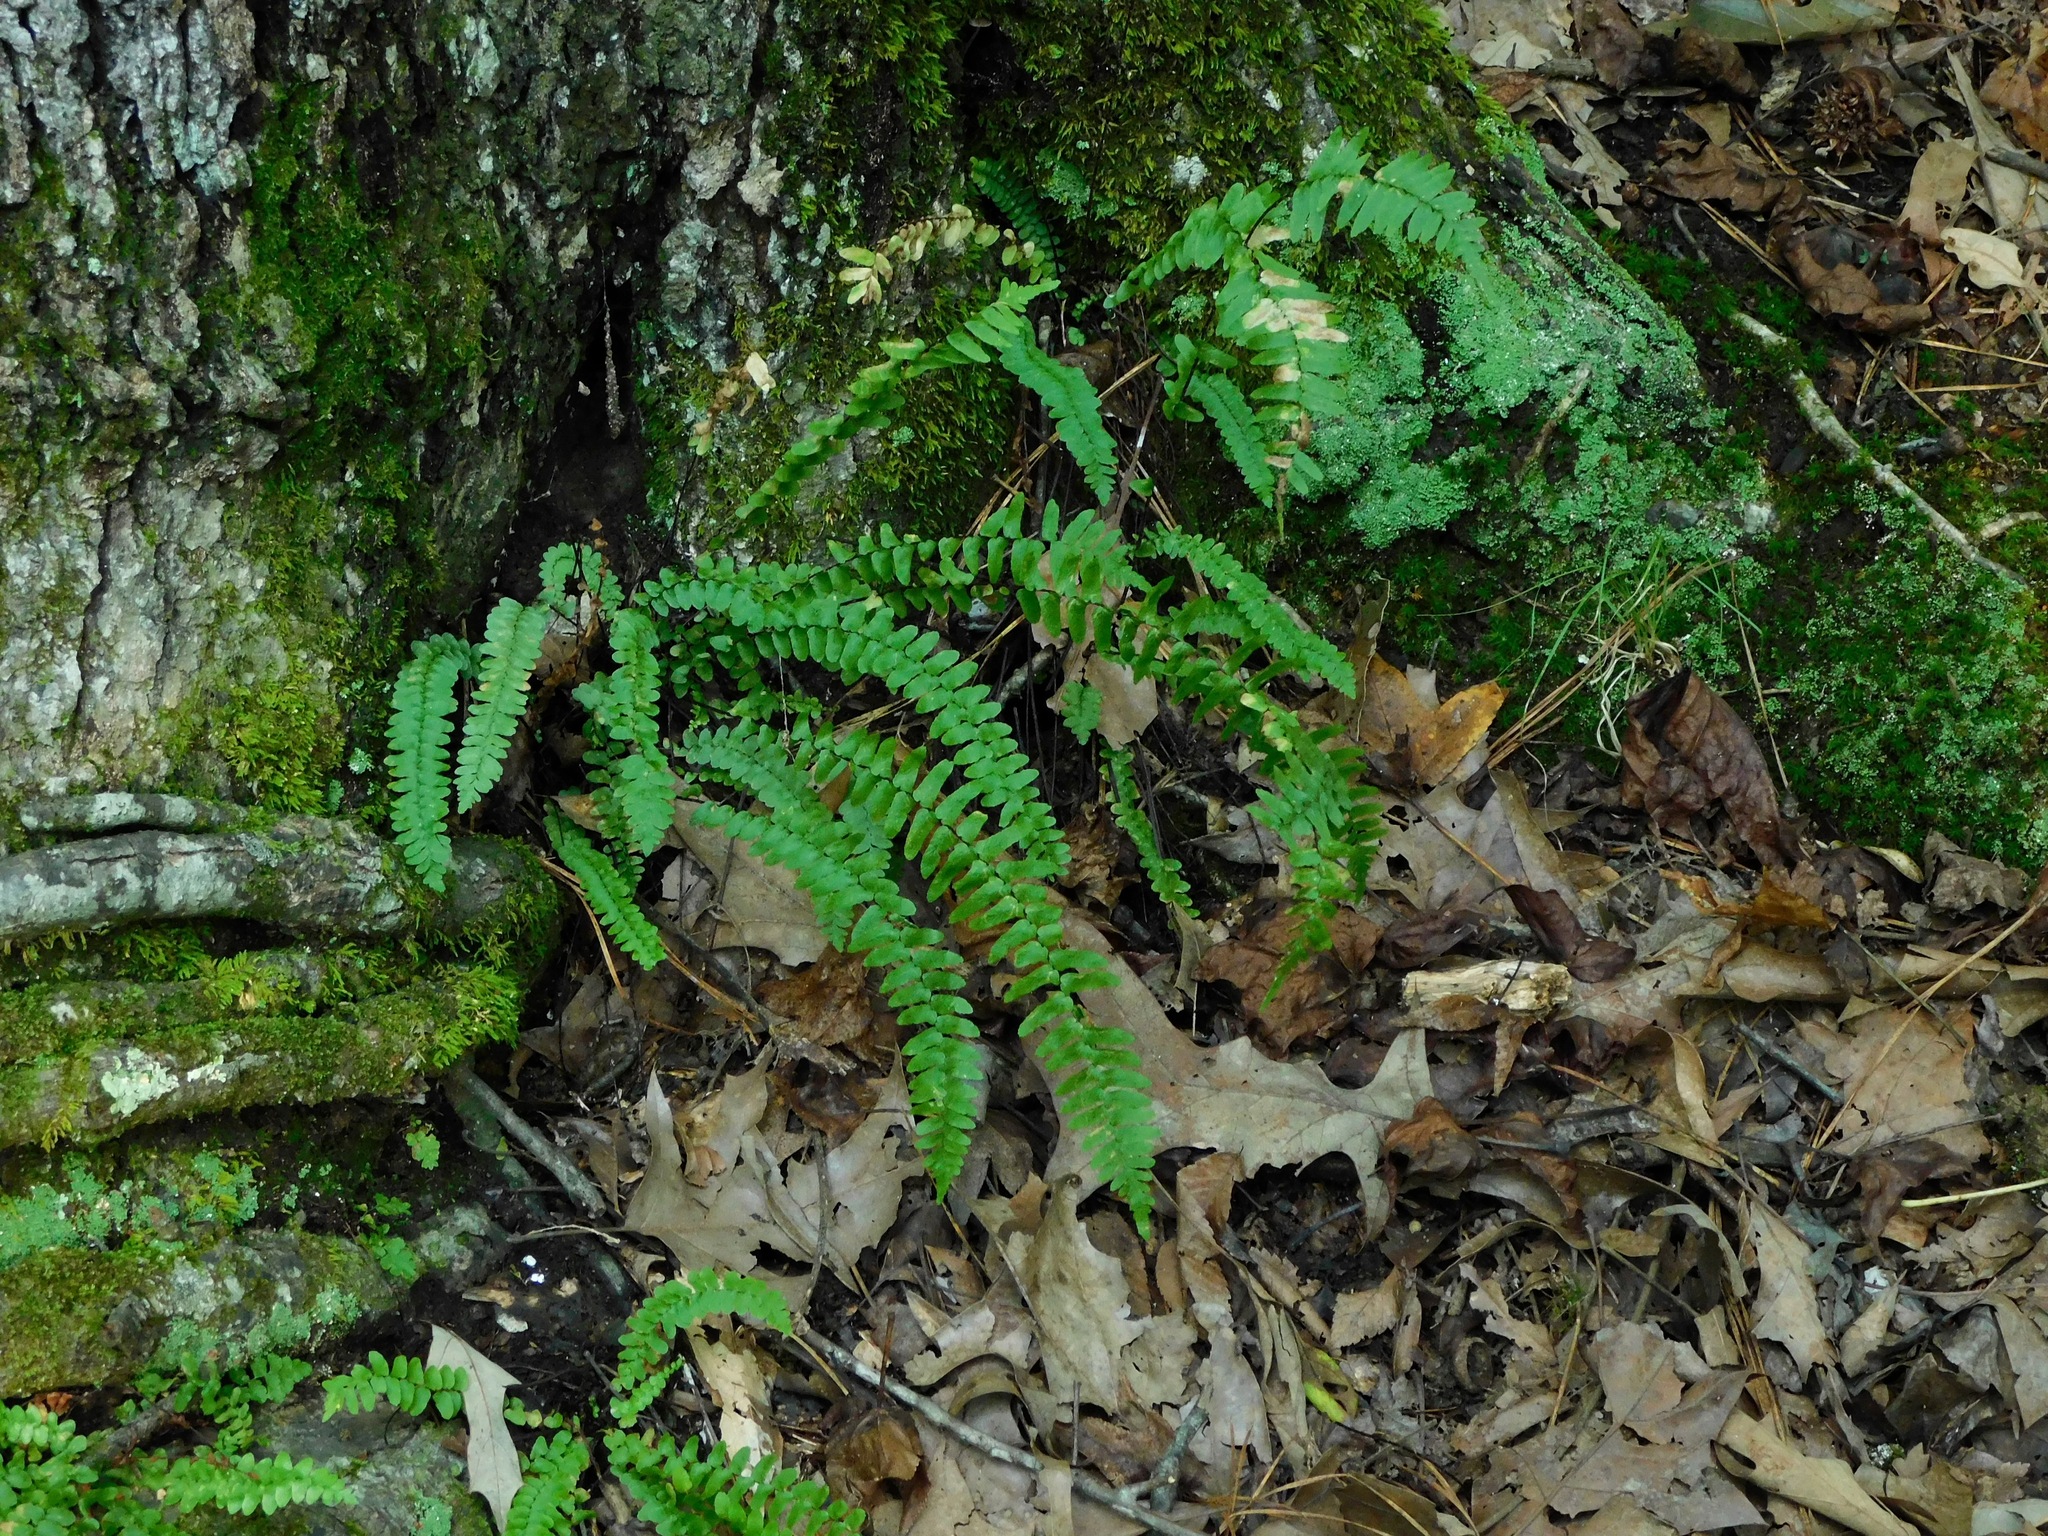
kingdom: Plantae
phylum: Tracheophyta
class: Polypodiopsida
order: Polypodiales
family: Aspleniaceae
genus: Asplenium
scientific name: Asplenium platyneuron
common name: Ebony spleenwort
